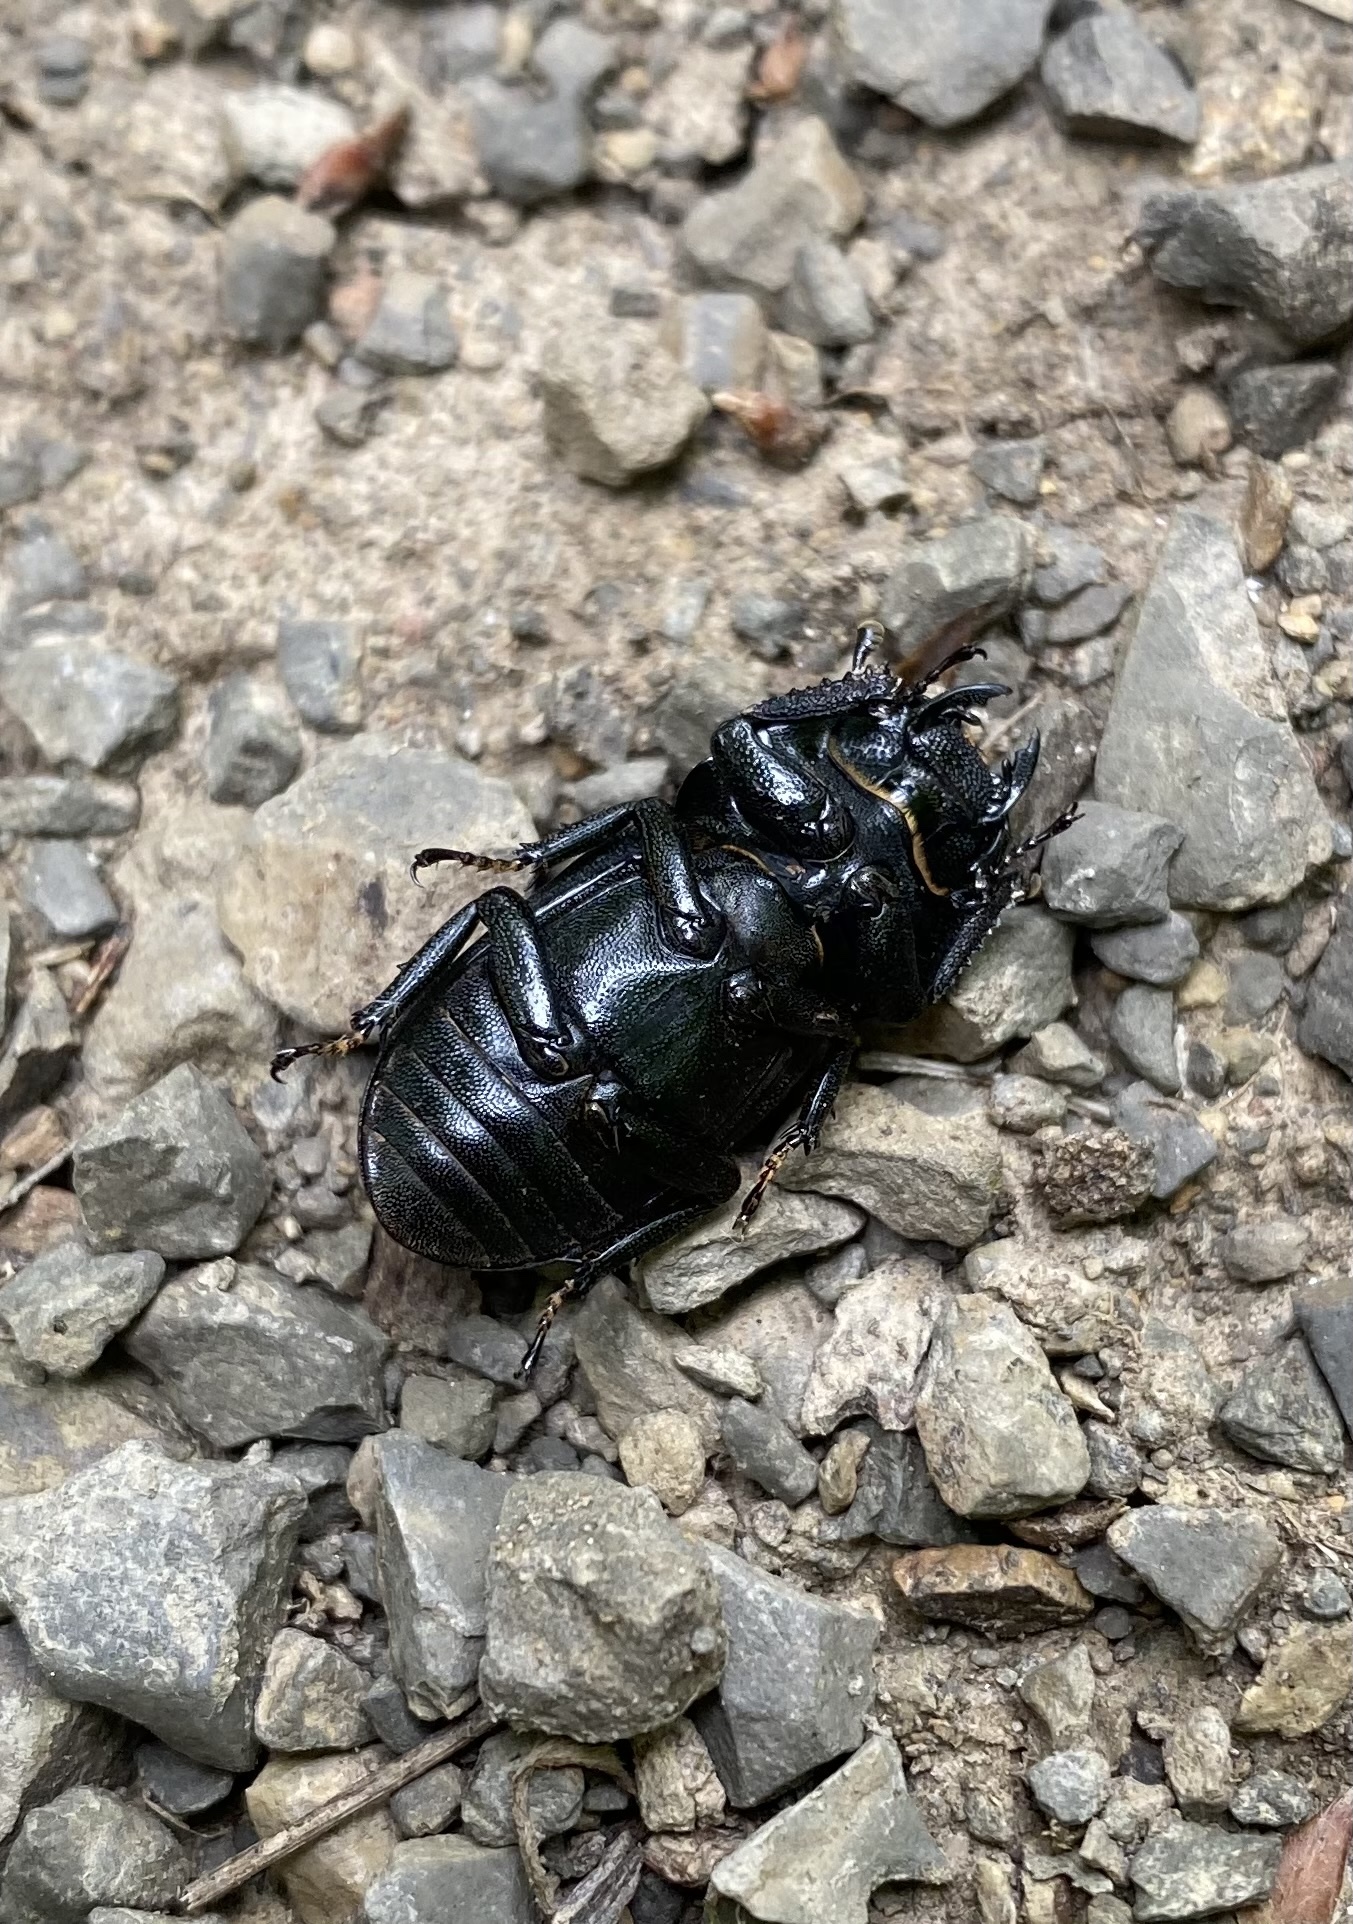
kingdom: Animalia
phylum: Arthropoda
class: Insecta
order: Coleoptera
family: Lucanidae
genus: Dorcus
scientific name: Dorcus parallelipipedus
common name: Lesser stag beetle
